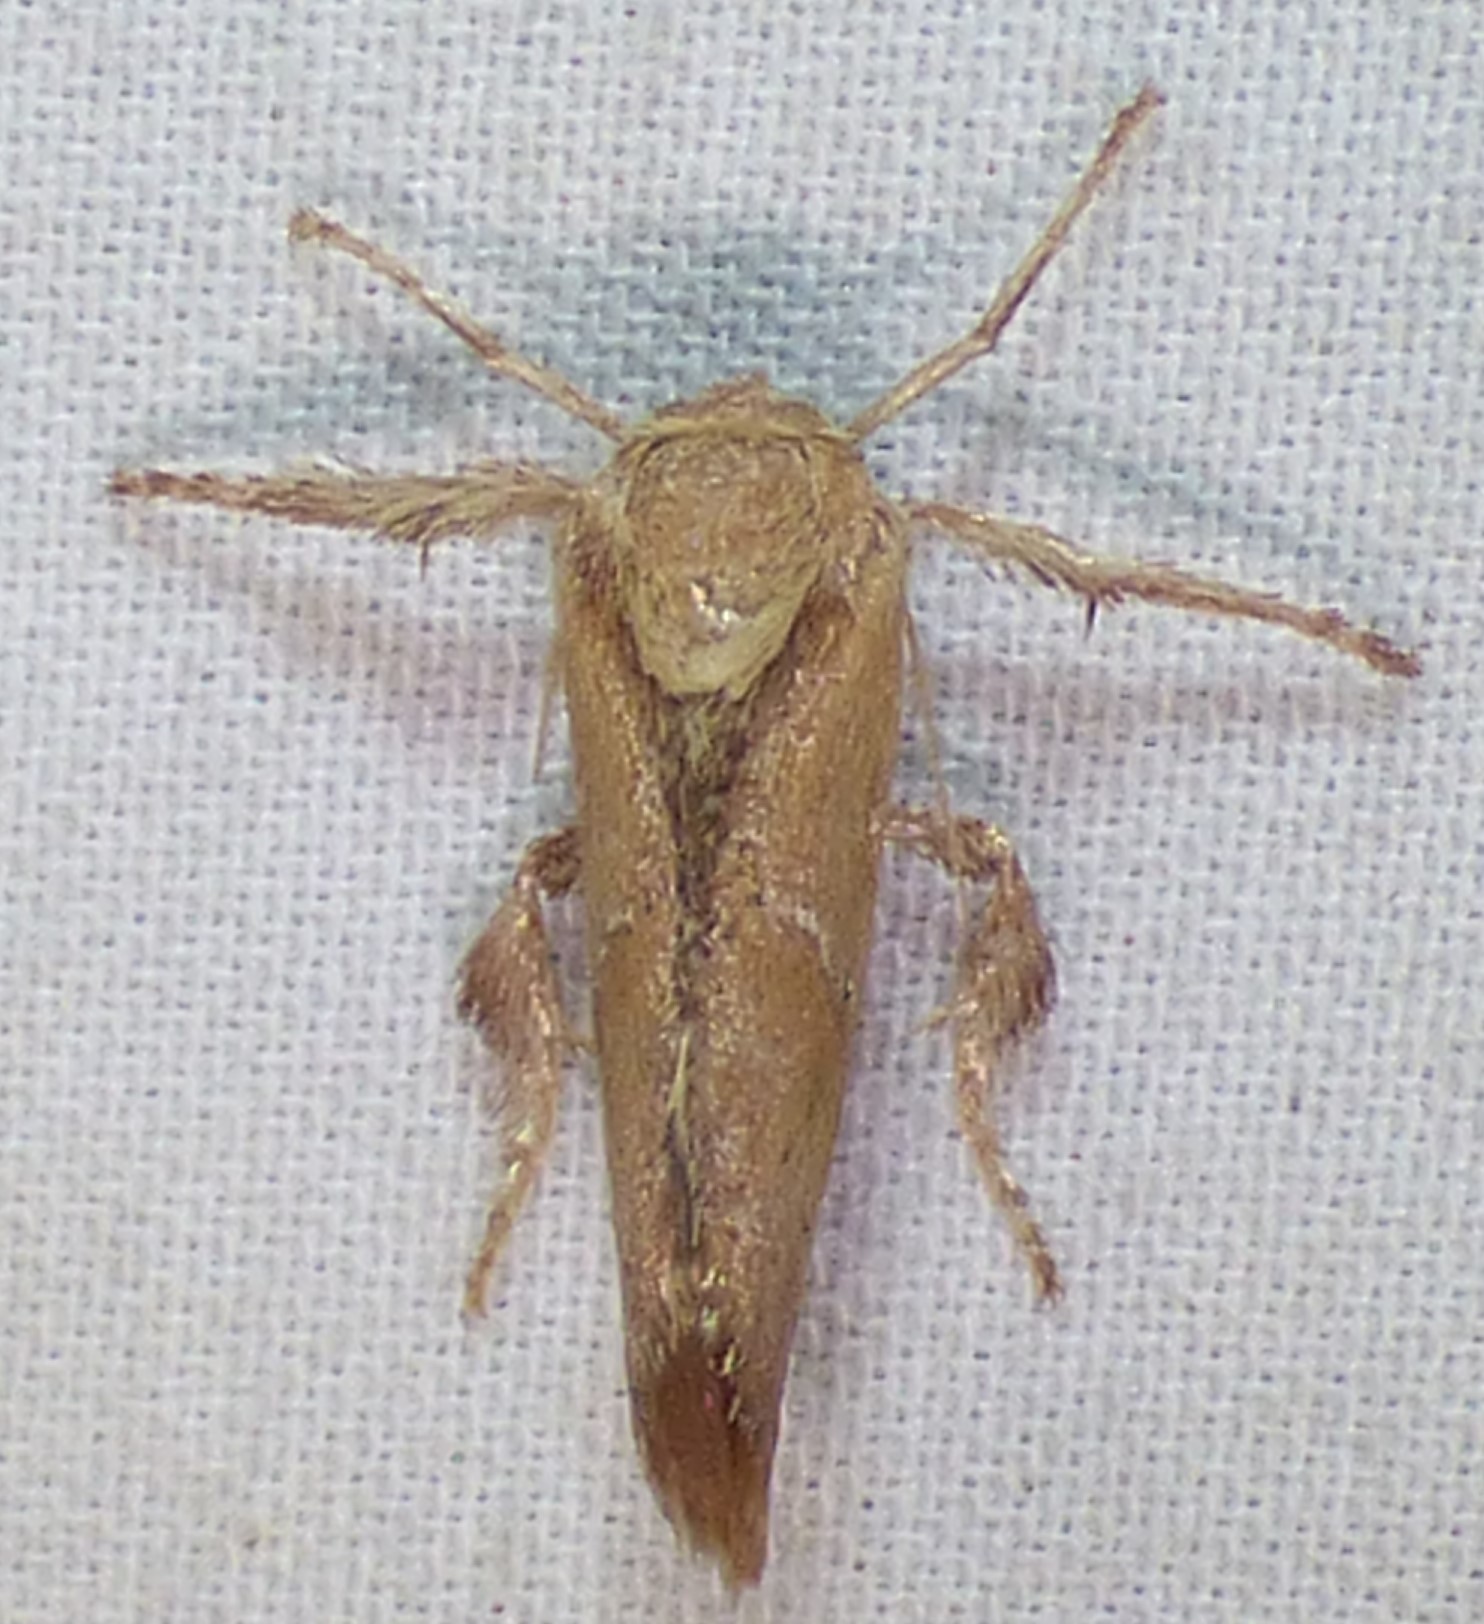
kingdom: Animalia
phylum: Arthropoda
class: Insecta
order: Lepidoptera
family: Limacodidae
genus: Adoneta
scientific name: Adoneta bicaudata
